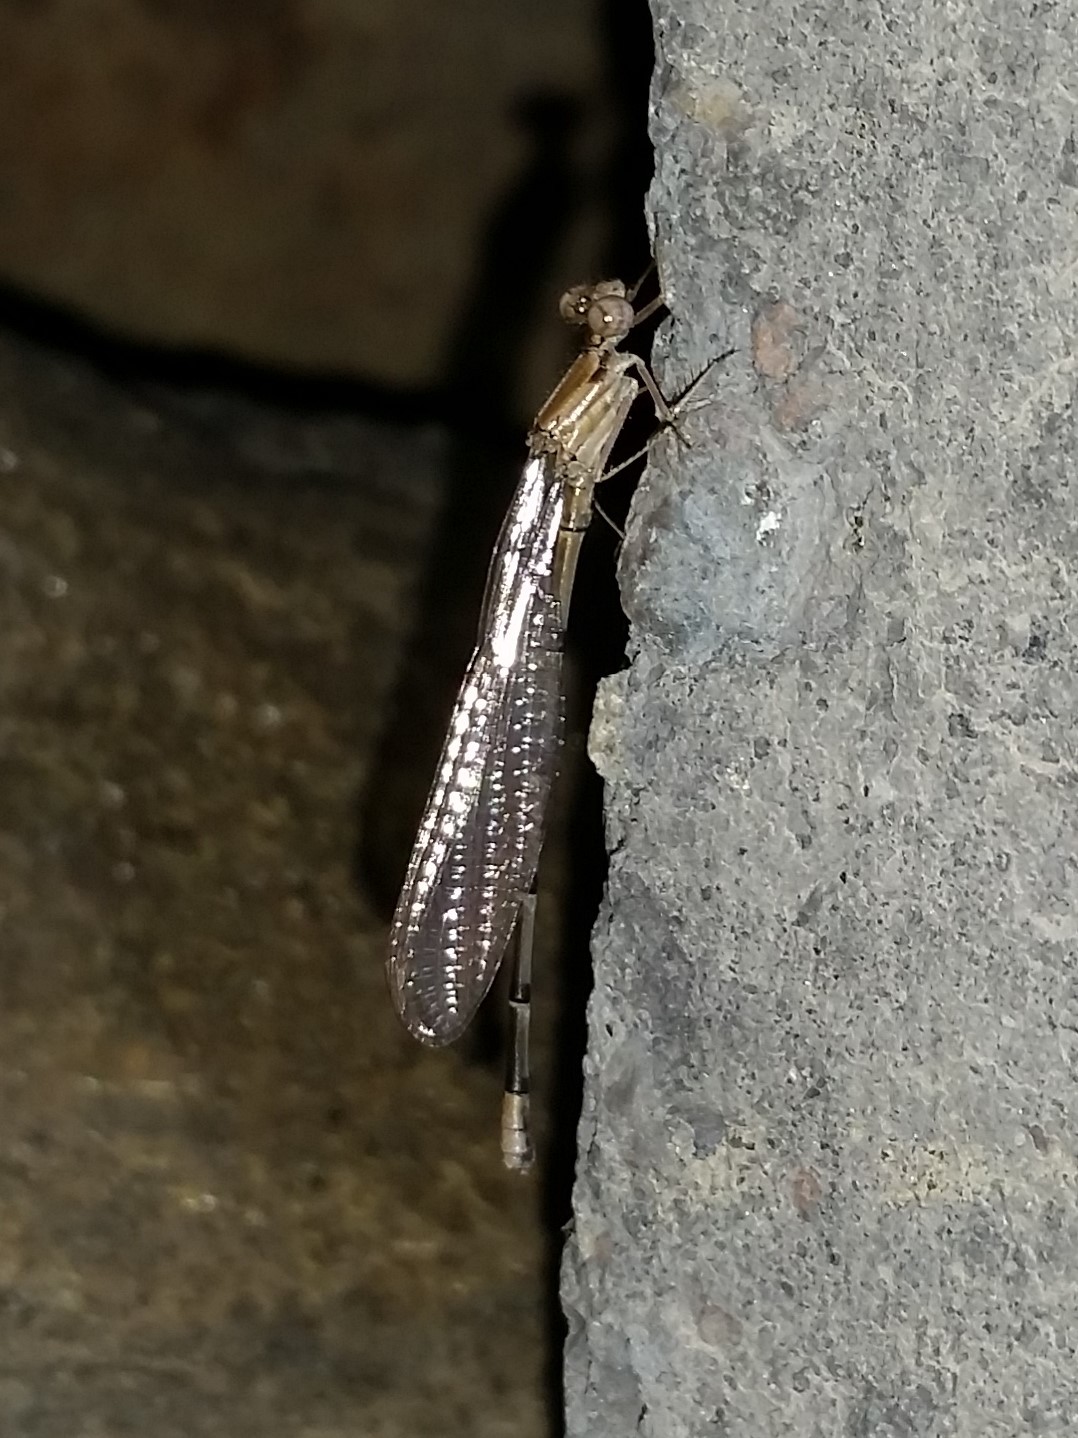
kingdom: Animalia
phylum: Arthropoda
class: Insecta
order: Odonata
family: Coenagrionidae
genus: Argia
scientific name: Argia apicalis
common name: Blue-fronted dancer
